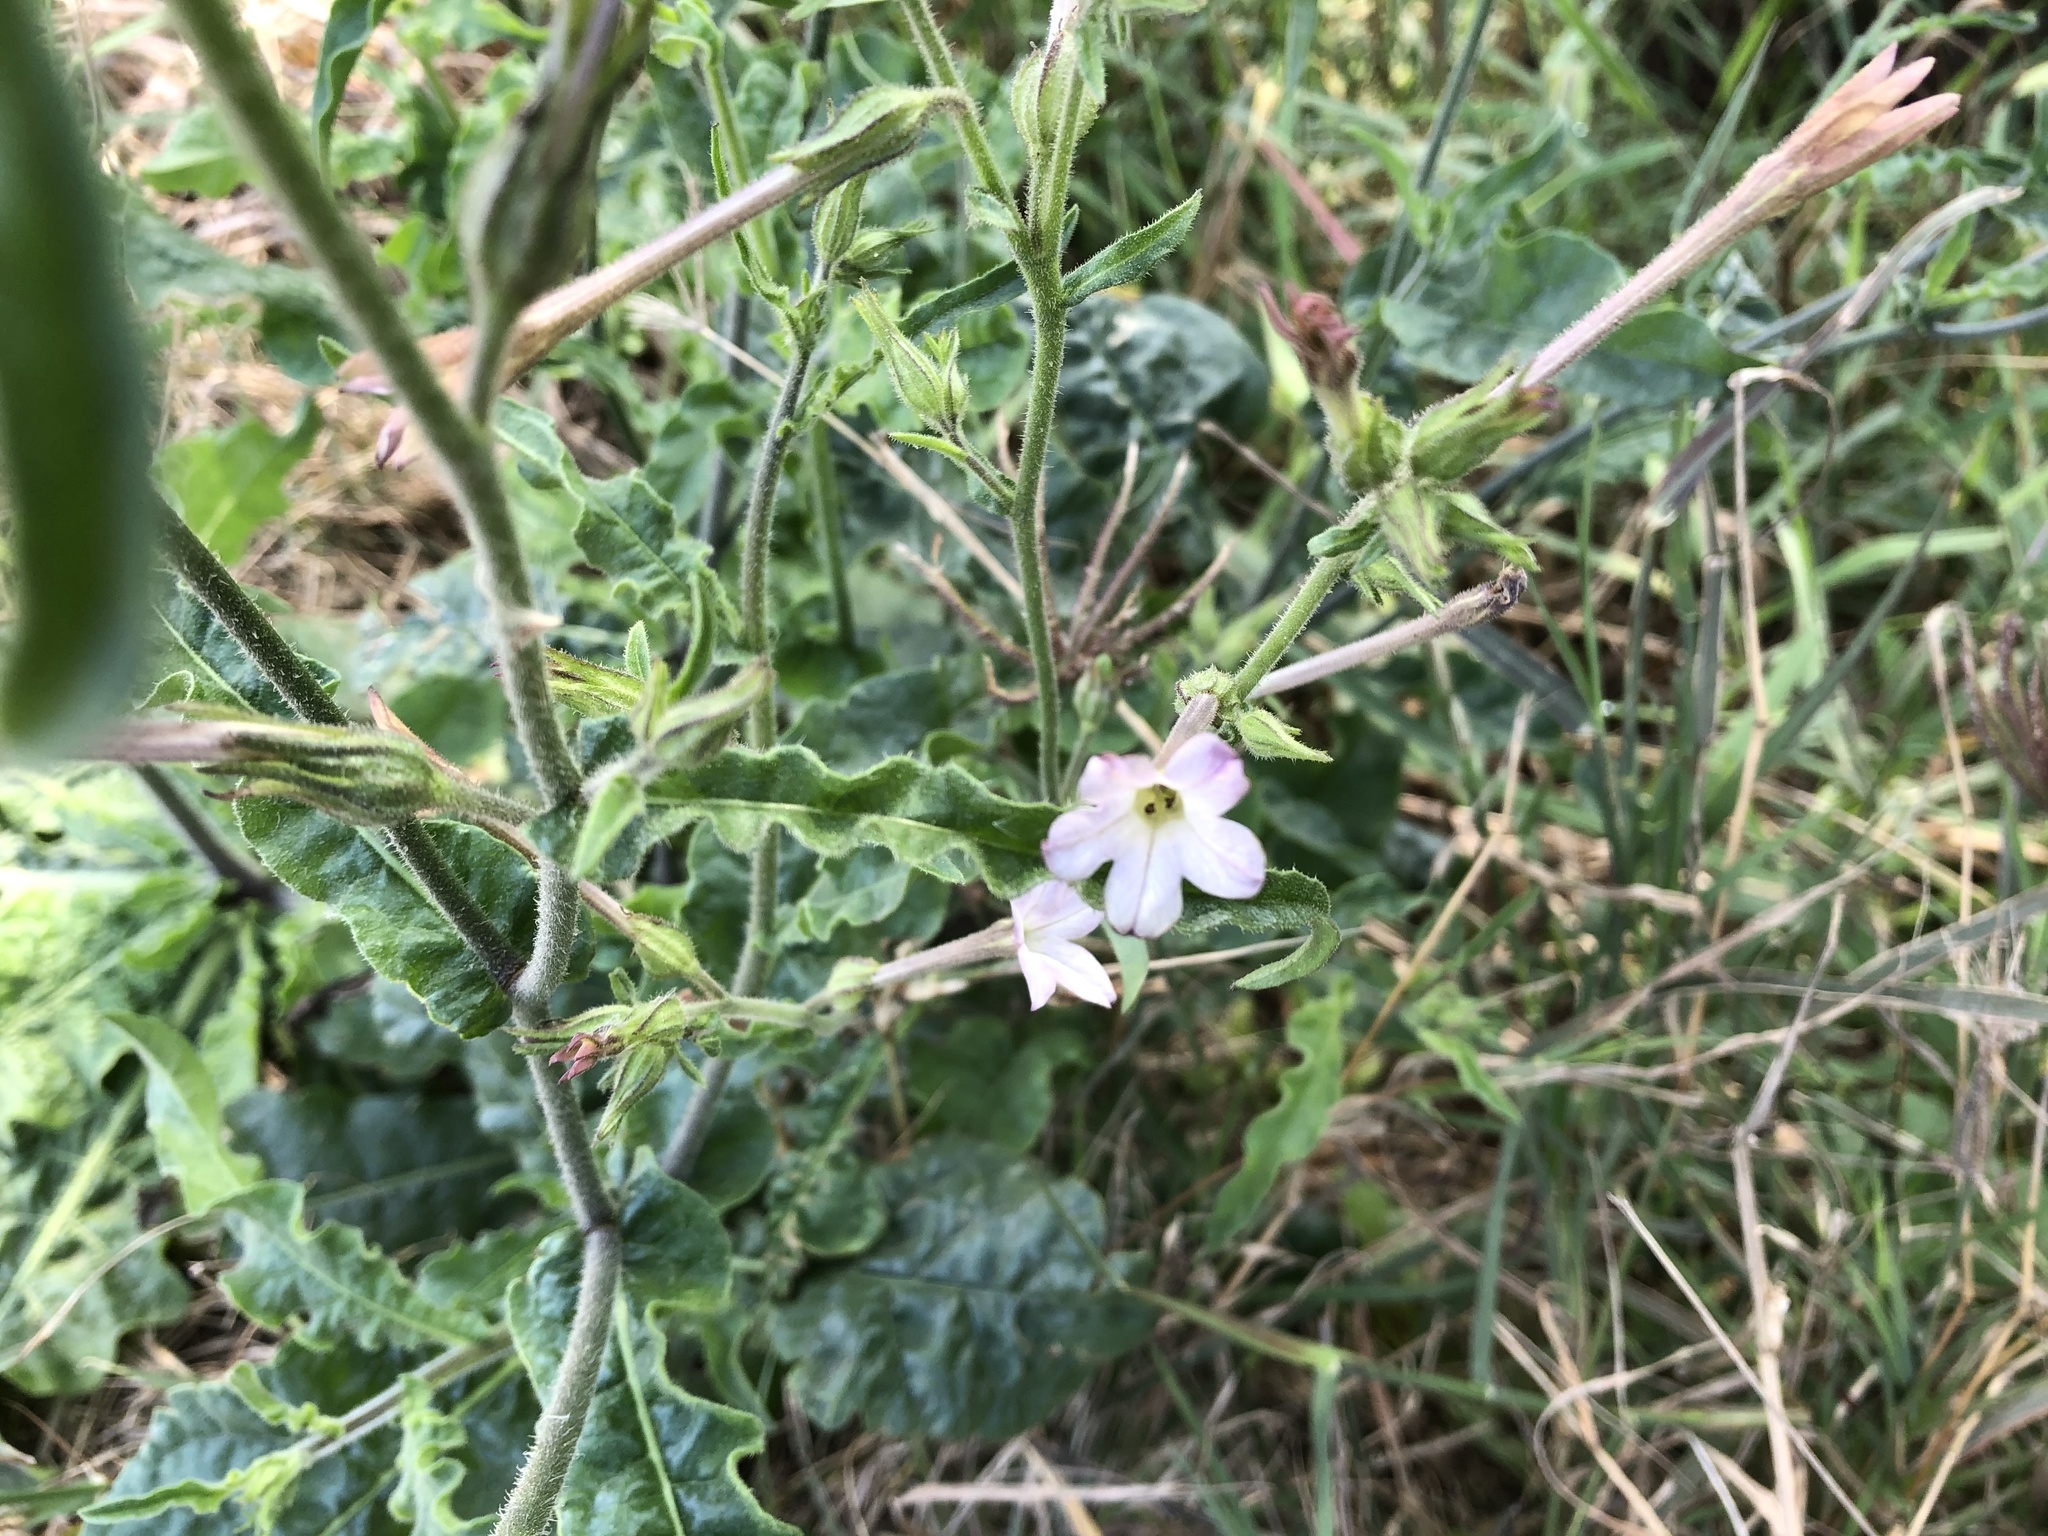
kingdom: Plantae
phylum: Tracheophyta
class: Magnoliopsida
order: Solanales
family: Solanaceae
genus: Nicotiana
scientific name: Nicotiana plumbaginifolia
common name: Tex-mex tobacco
